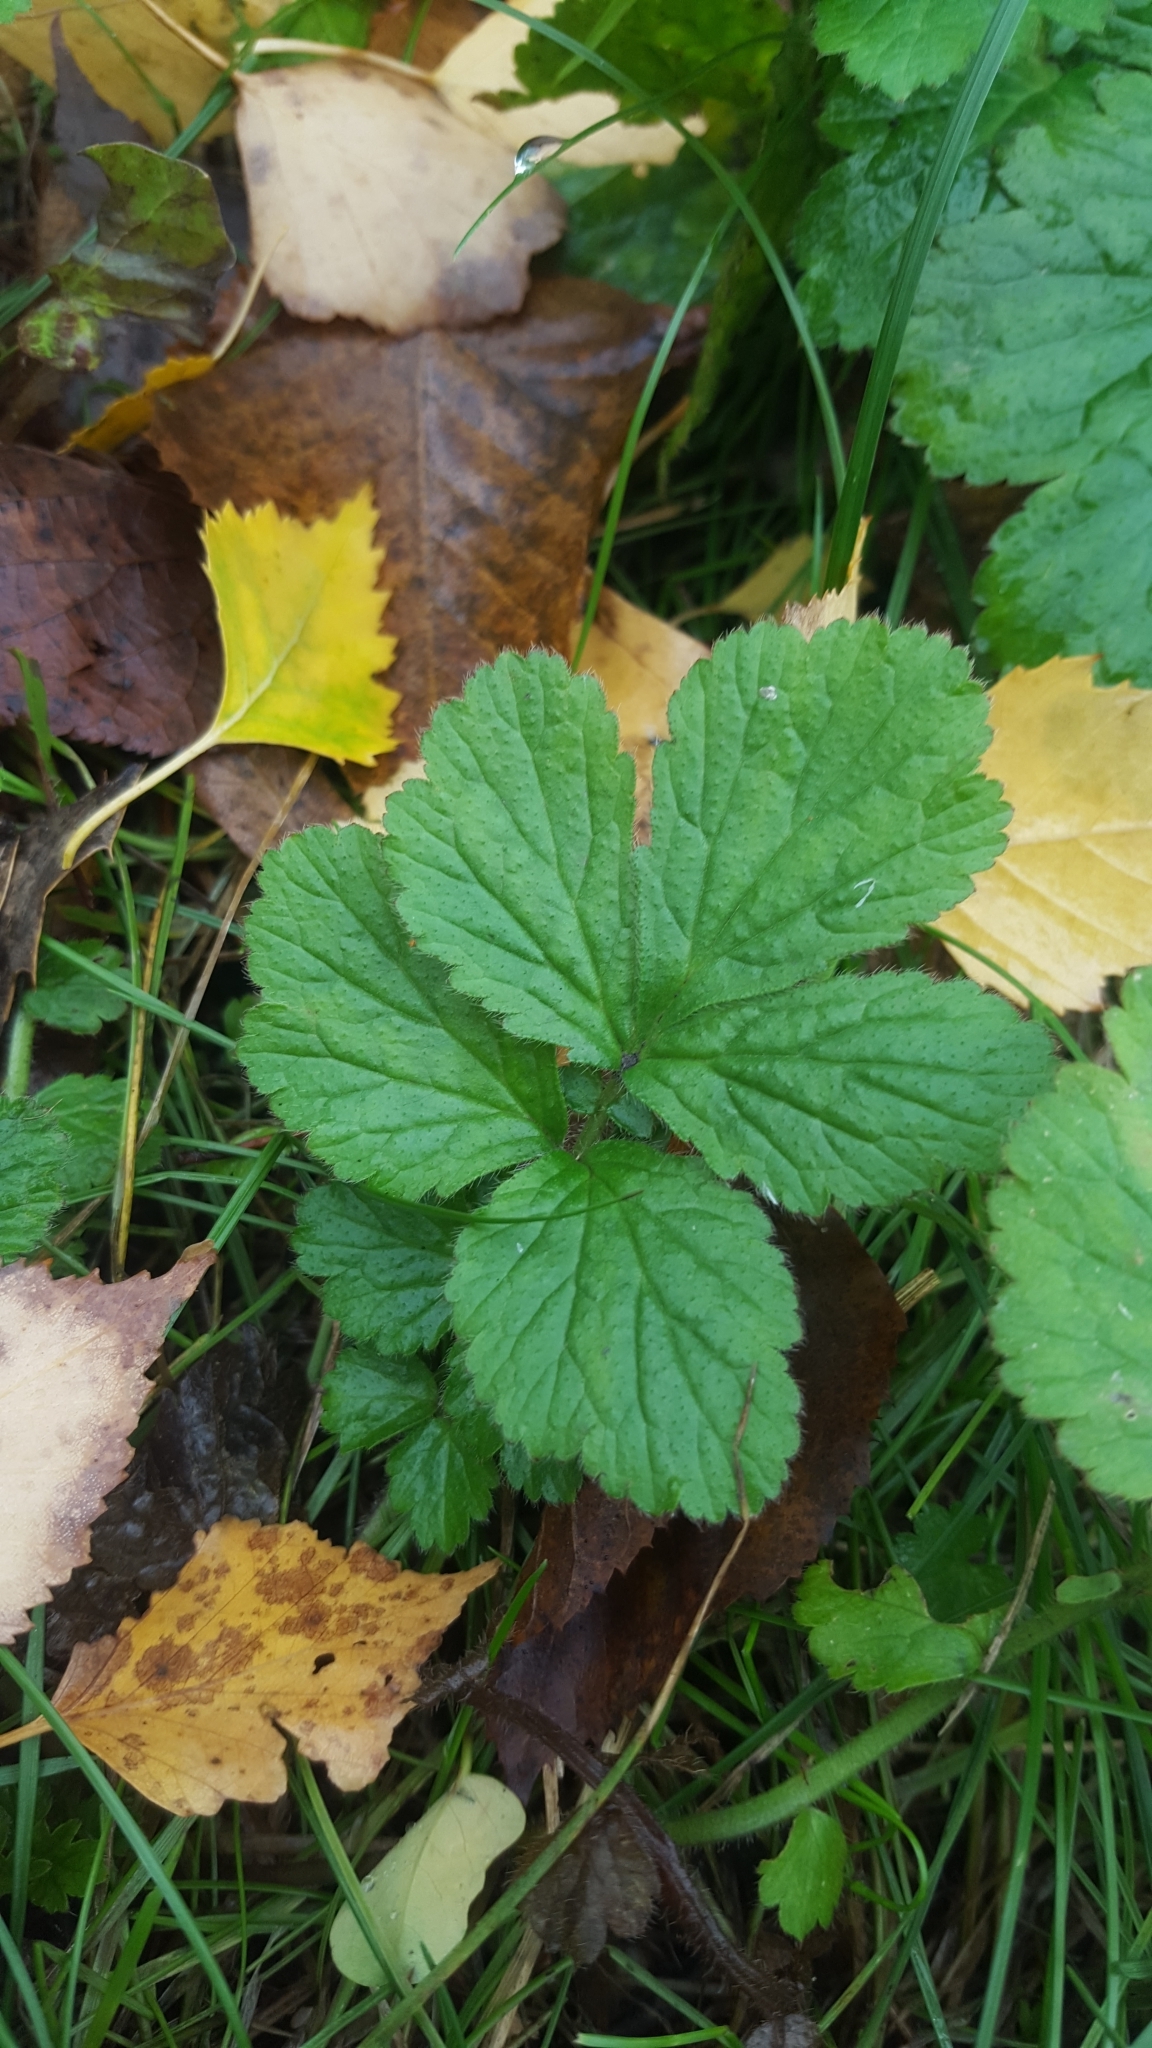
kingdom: Plantae
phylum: Tracheophyta
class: Magnoliopsida
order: Rosales
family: Rosaceae
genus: Geum
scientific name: Geum urbanum
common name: Wood avens
